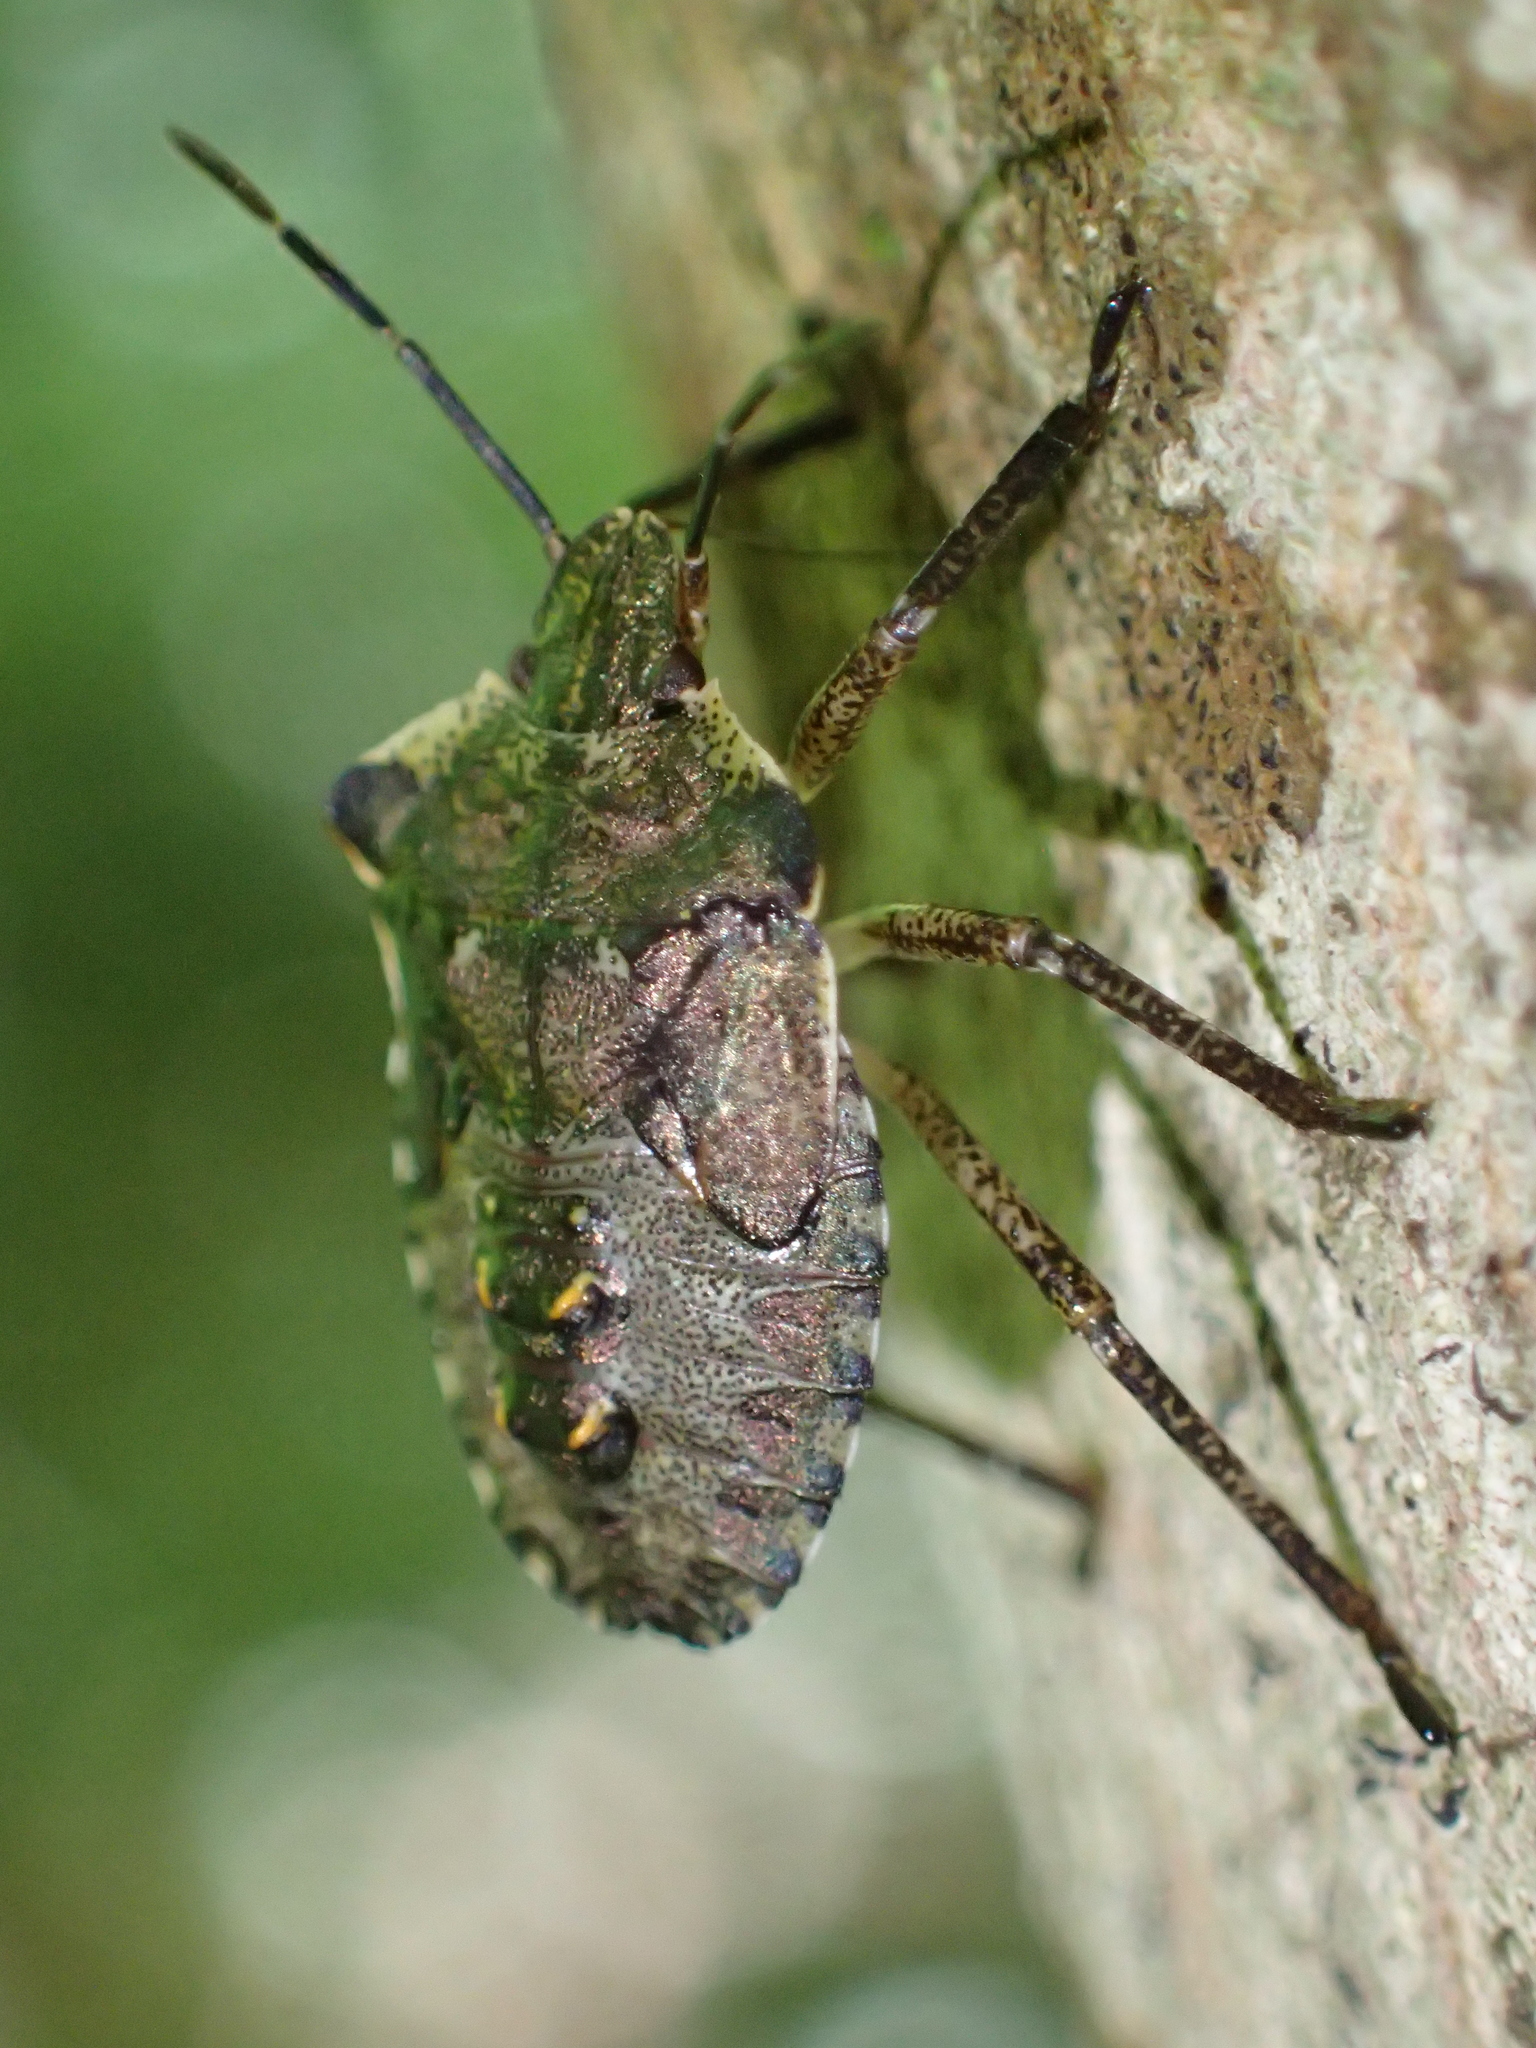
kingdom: Animalia
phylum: Arthropoda
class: Insecta
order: Hemiptera
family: Pentatomidae
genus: Pentatoma
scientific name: Pentatoma rufipes
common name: Forest bug
